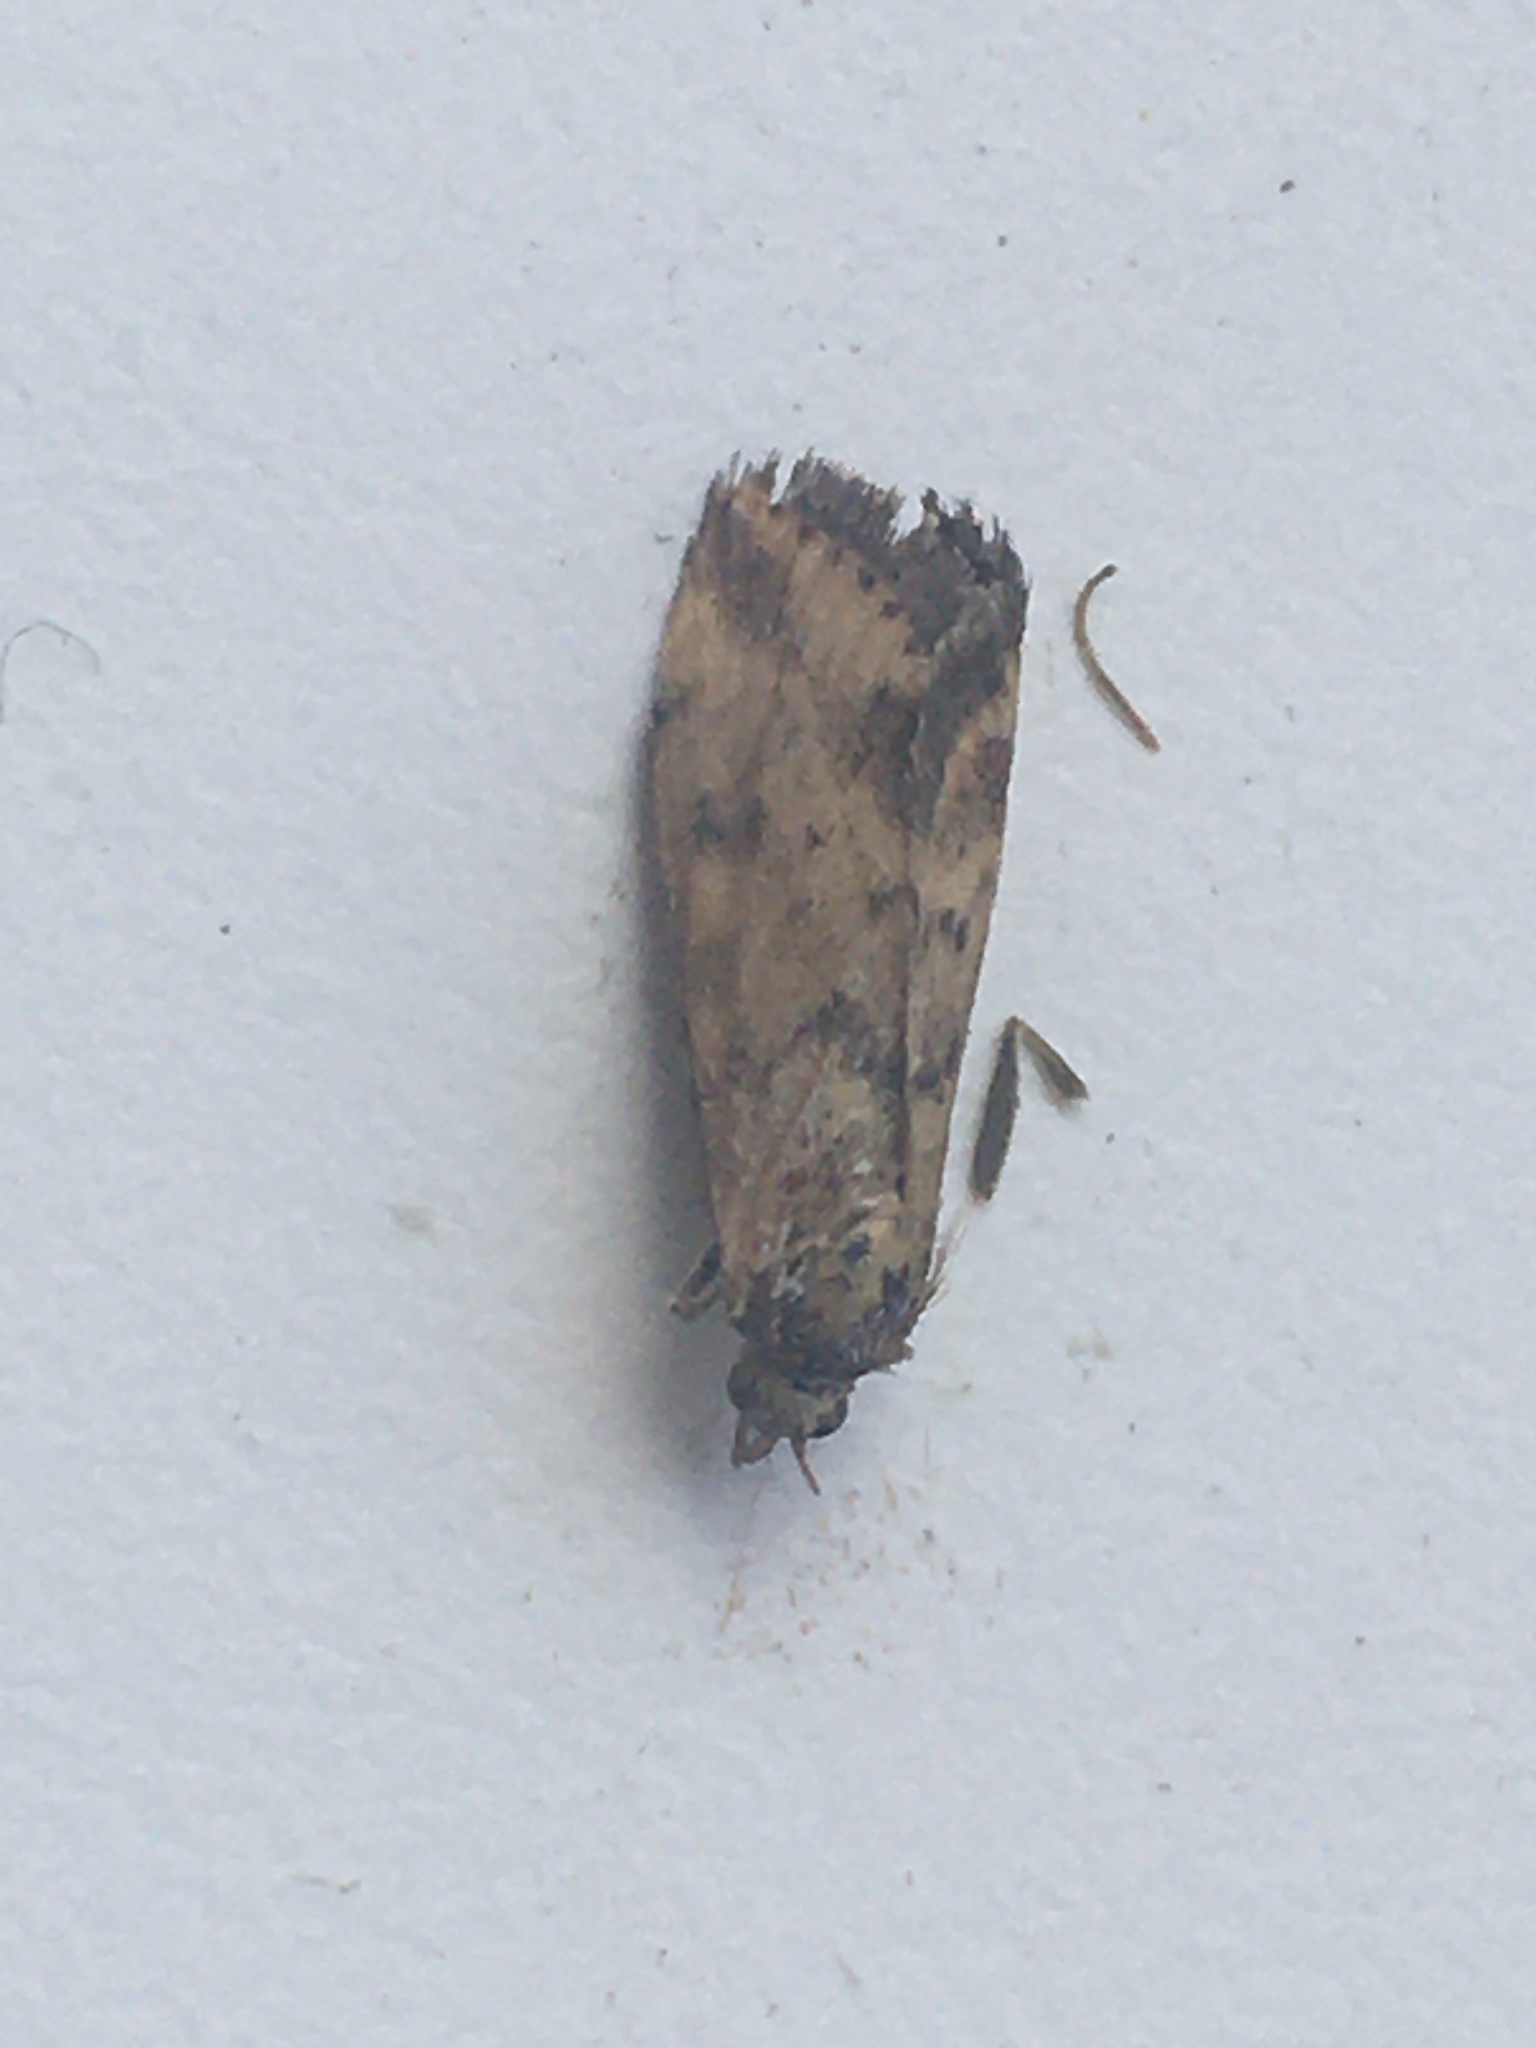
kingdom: Animalia
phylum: Arthropoda
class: Insecta
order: Lepidoptera
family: Crambidae
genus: Pyrausta
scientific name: Pyrausta despicata
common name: Straw-barred pearl
